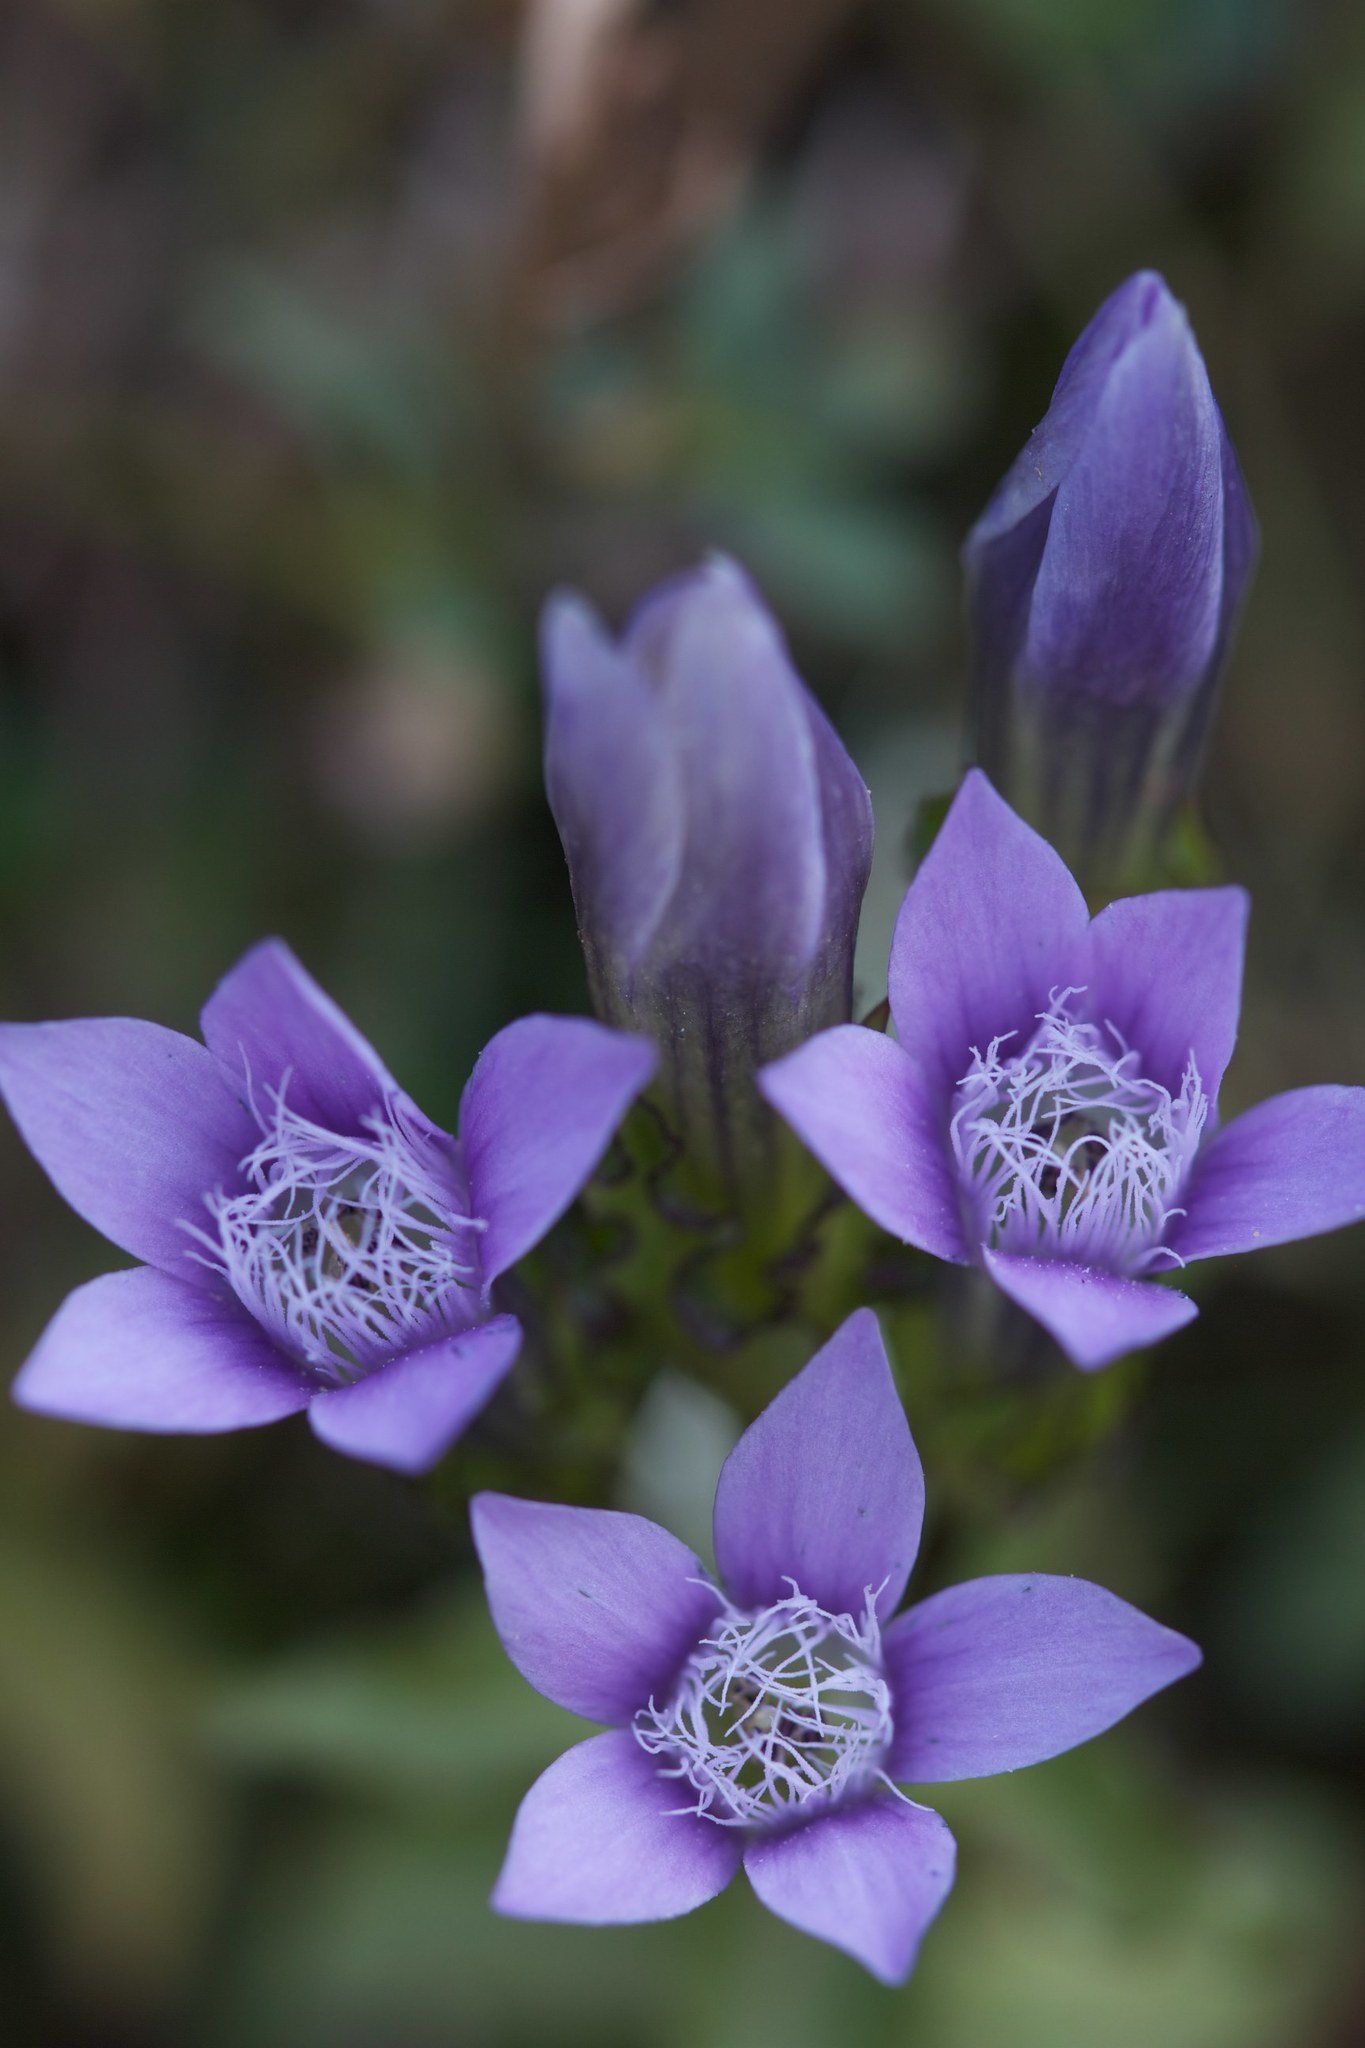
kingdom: Plantae
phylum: Tracheophyta
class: Magnoliopsida
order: Gentianales
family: Gentianaceae
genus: Gentianella
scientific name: Gentianella crispata
